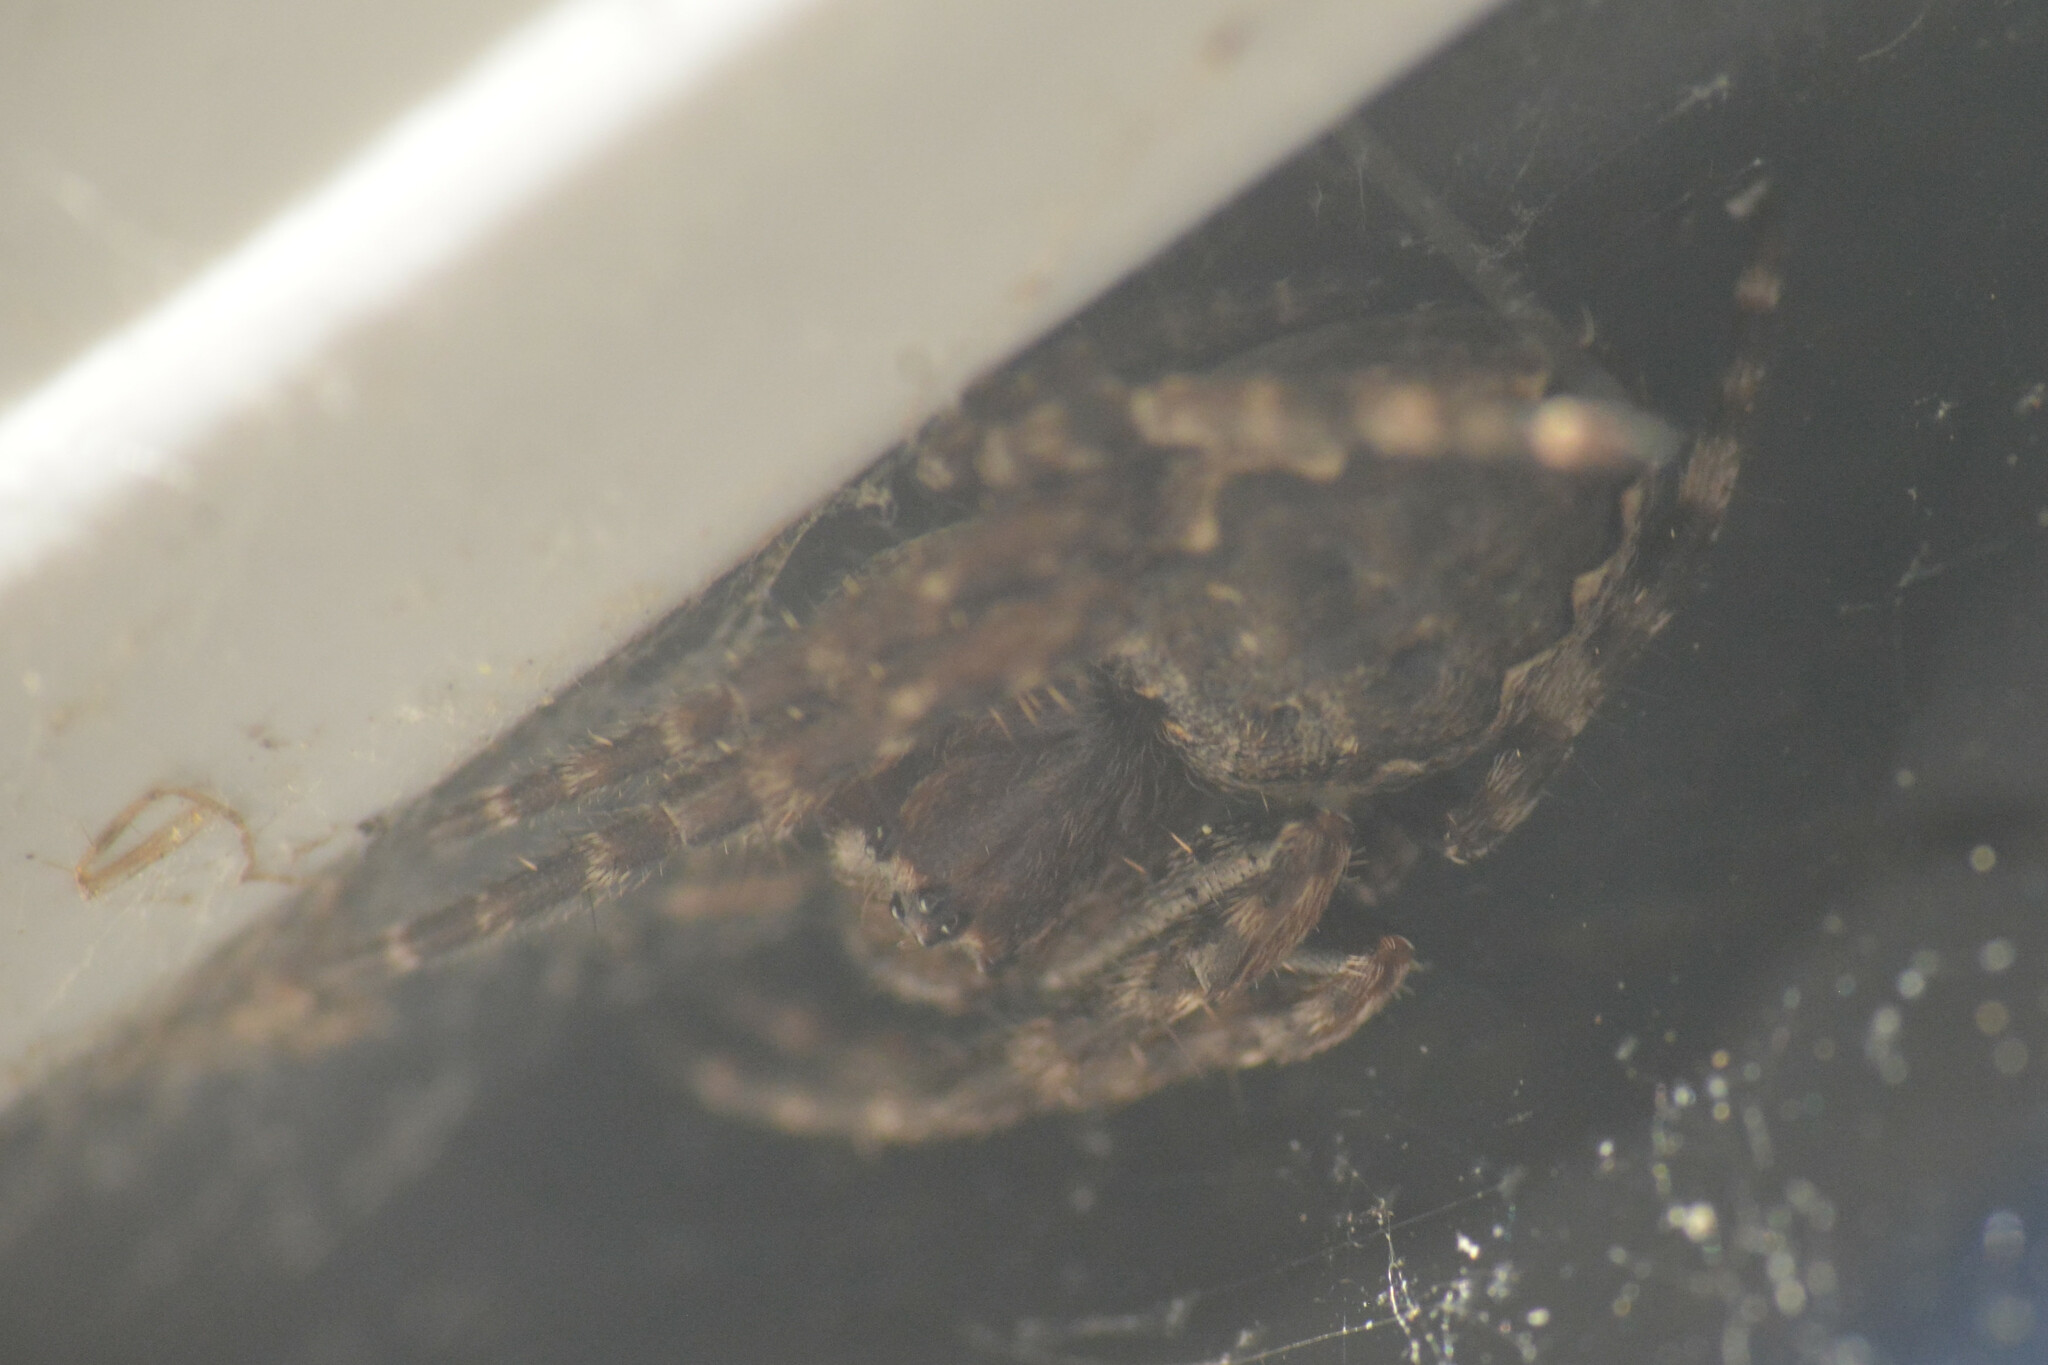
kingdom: Animalia
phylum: Arthropoda
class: Arachnida
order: Araneae
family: Araneidae
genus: Nuctenea
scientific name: Nuctenea umbratica
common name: Toad spider
